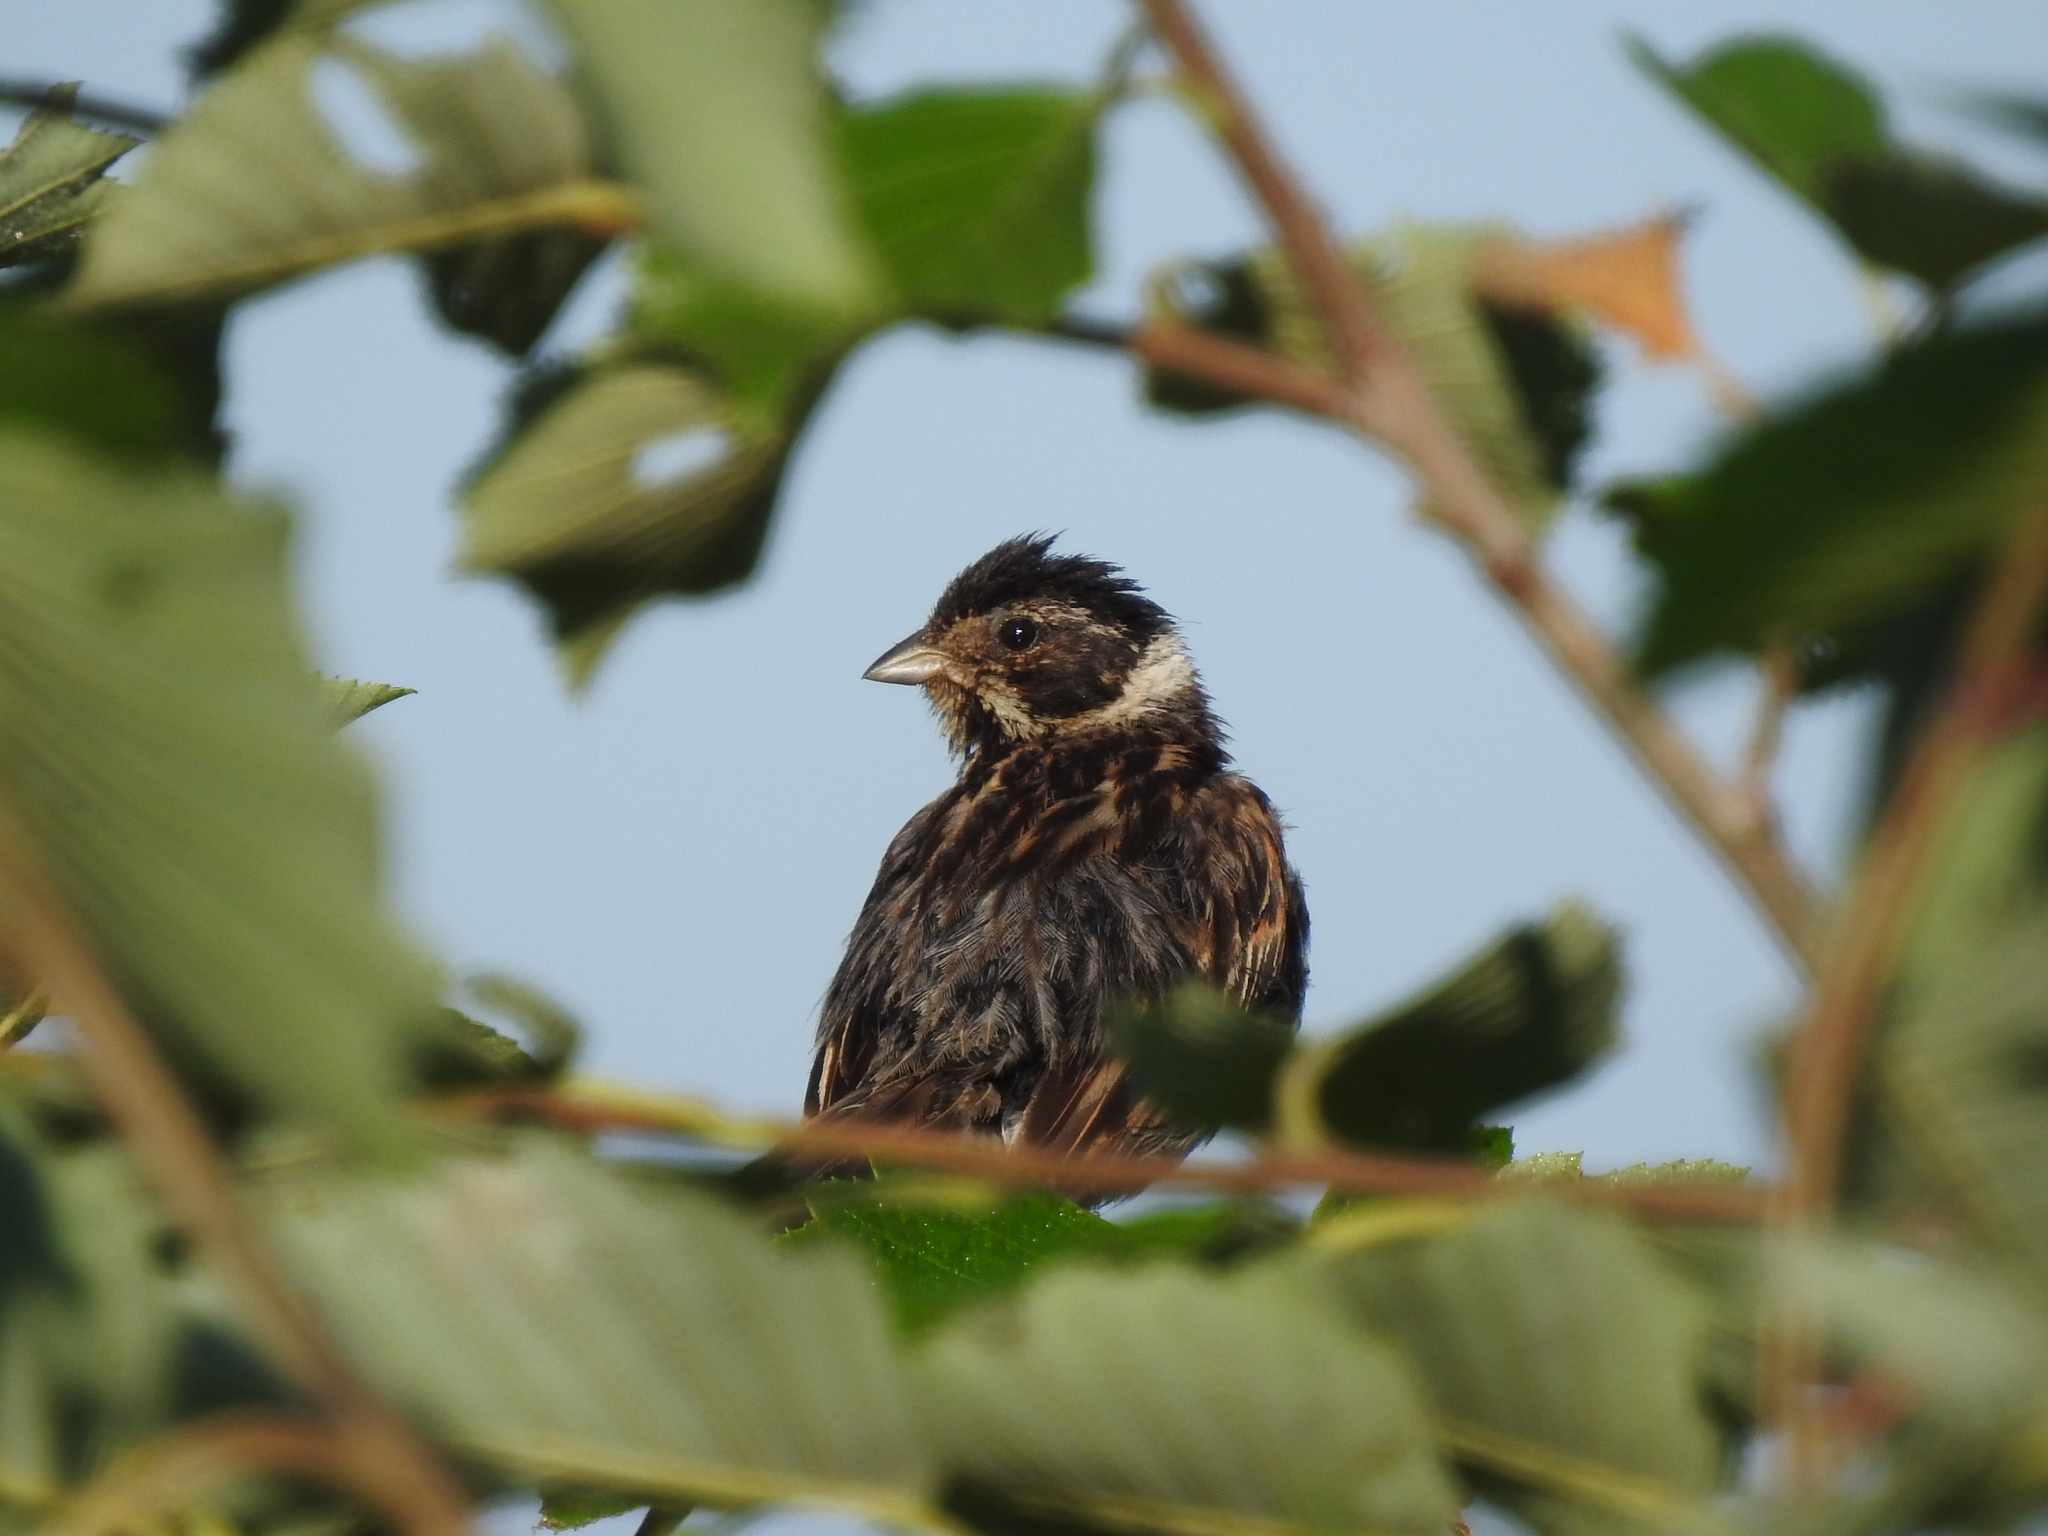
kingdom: Animalia
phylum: Chordata
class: Aves
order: Passeriformes
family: Emberizidae
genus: Emberiza
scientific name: Emberiza schoeniclus
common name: Reed bunting
